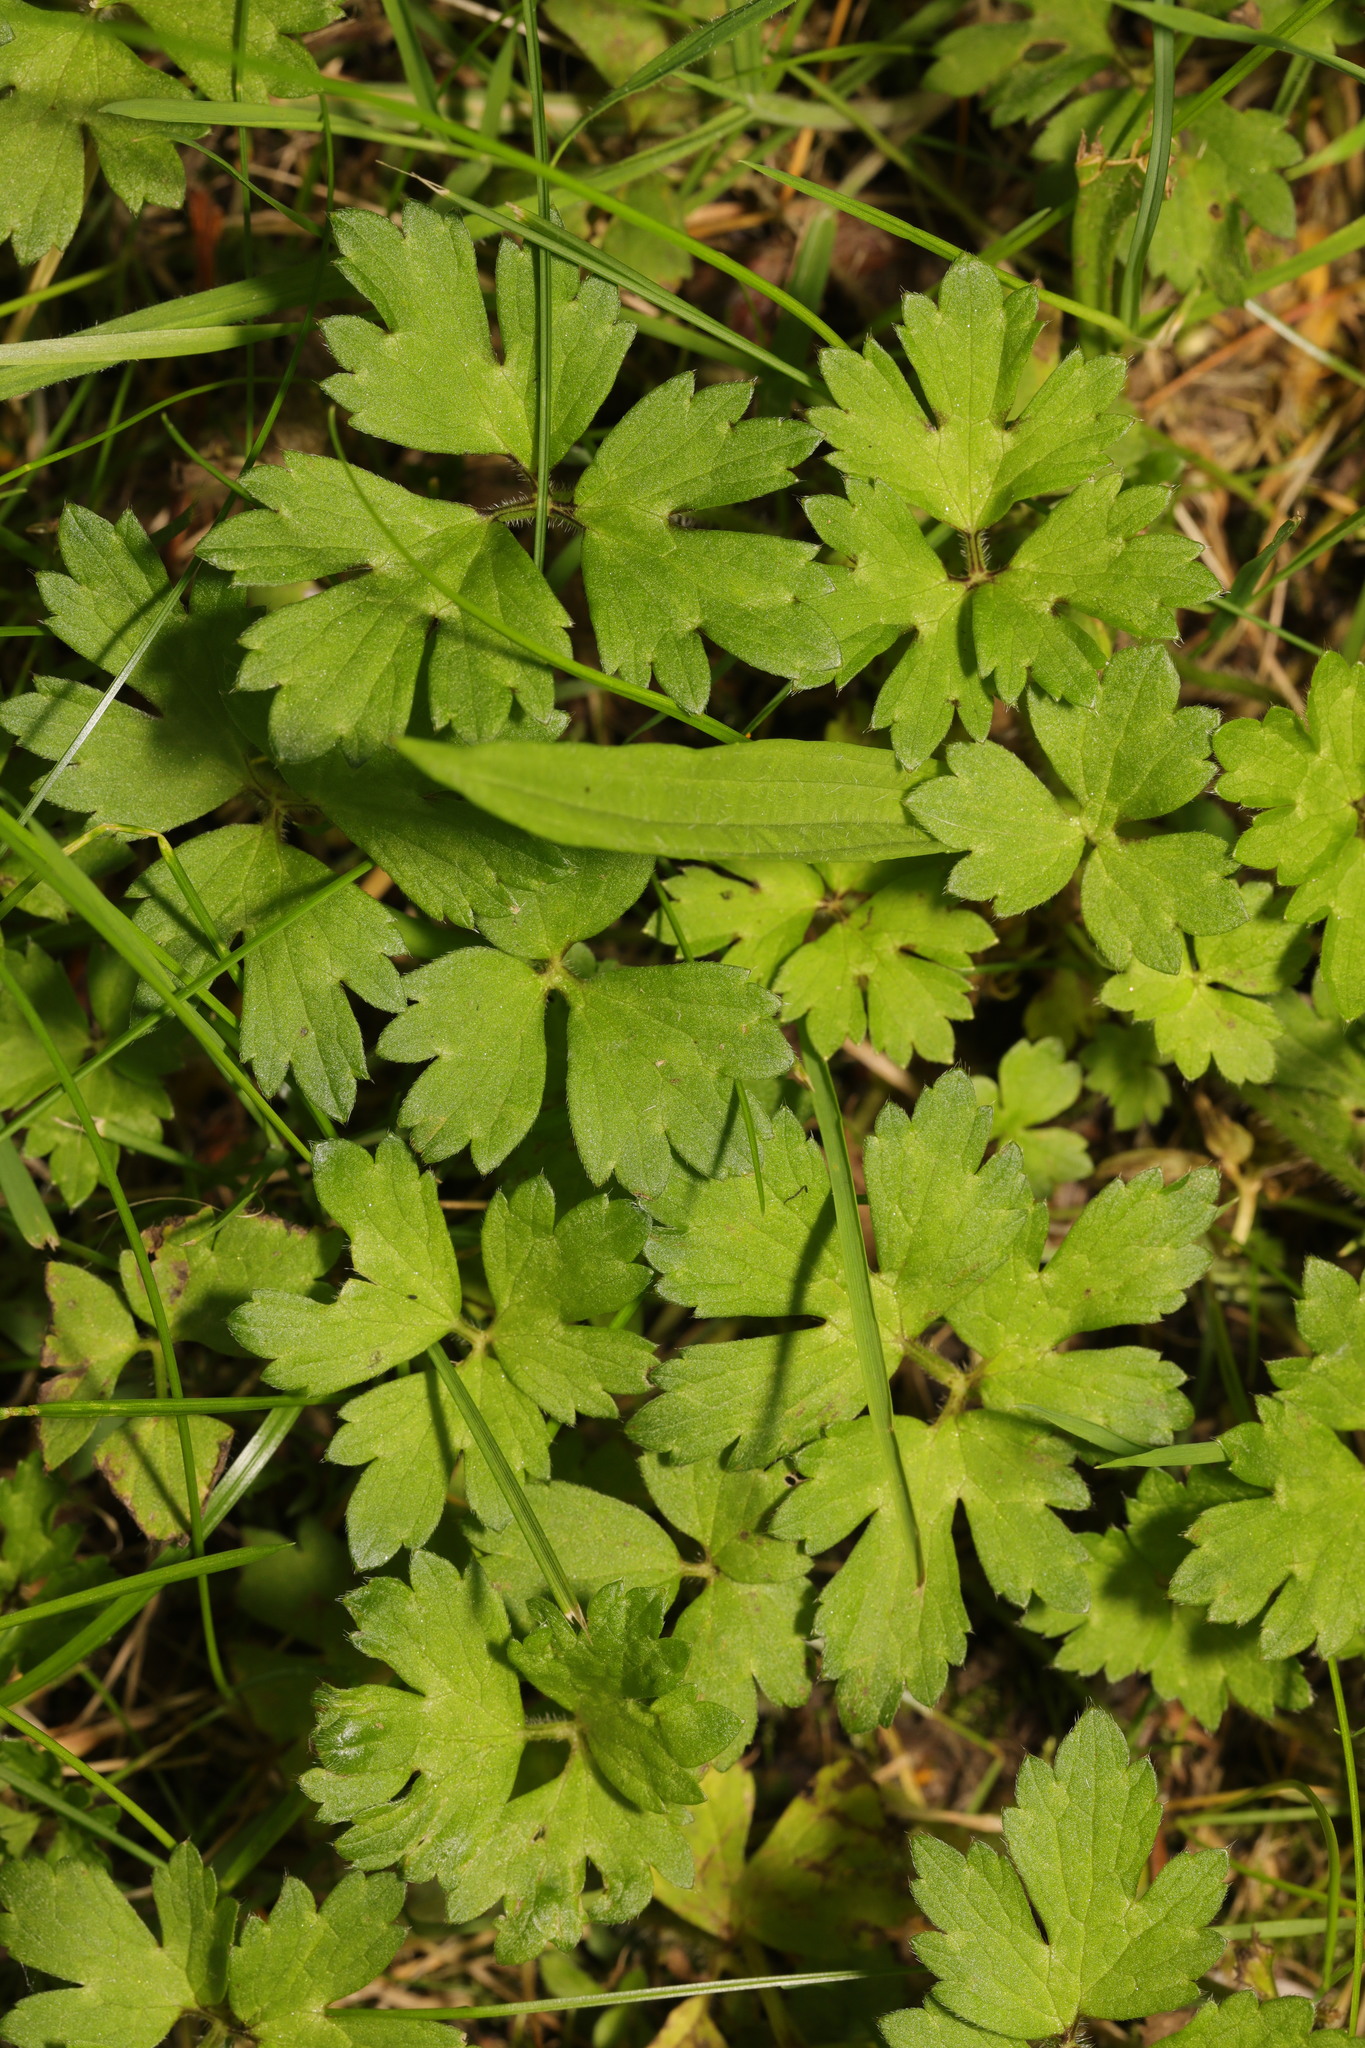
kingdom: Plantae
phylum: Tracheophyta
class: Magnoliopsida
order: Ranunculales
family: Ranunculaceae
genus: Ranunculus
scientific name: Ranunculus repens
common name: Creeping buttercup
